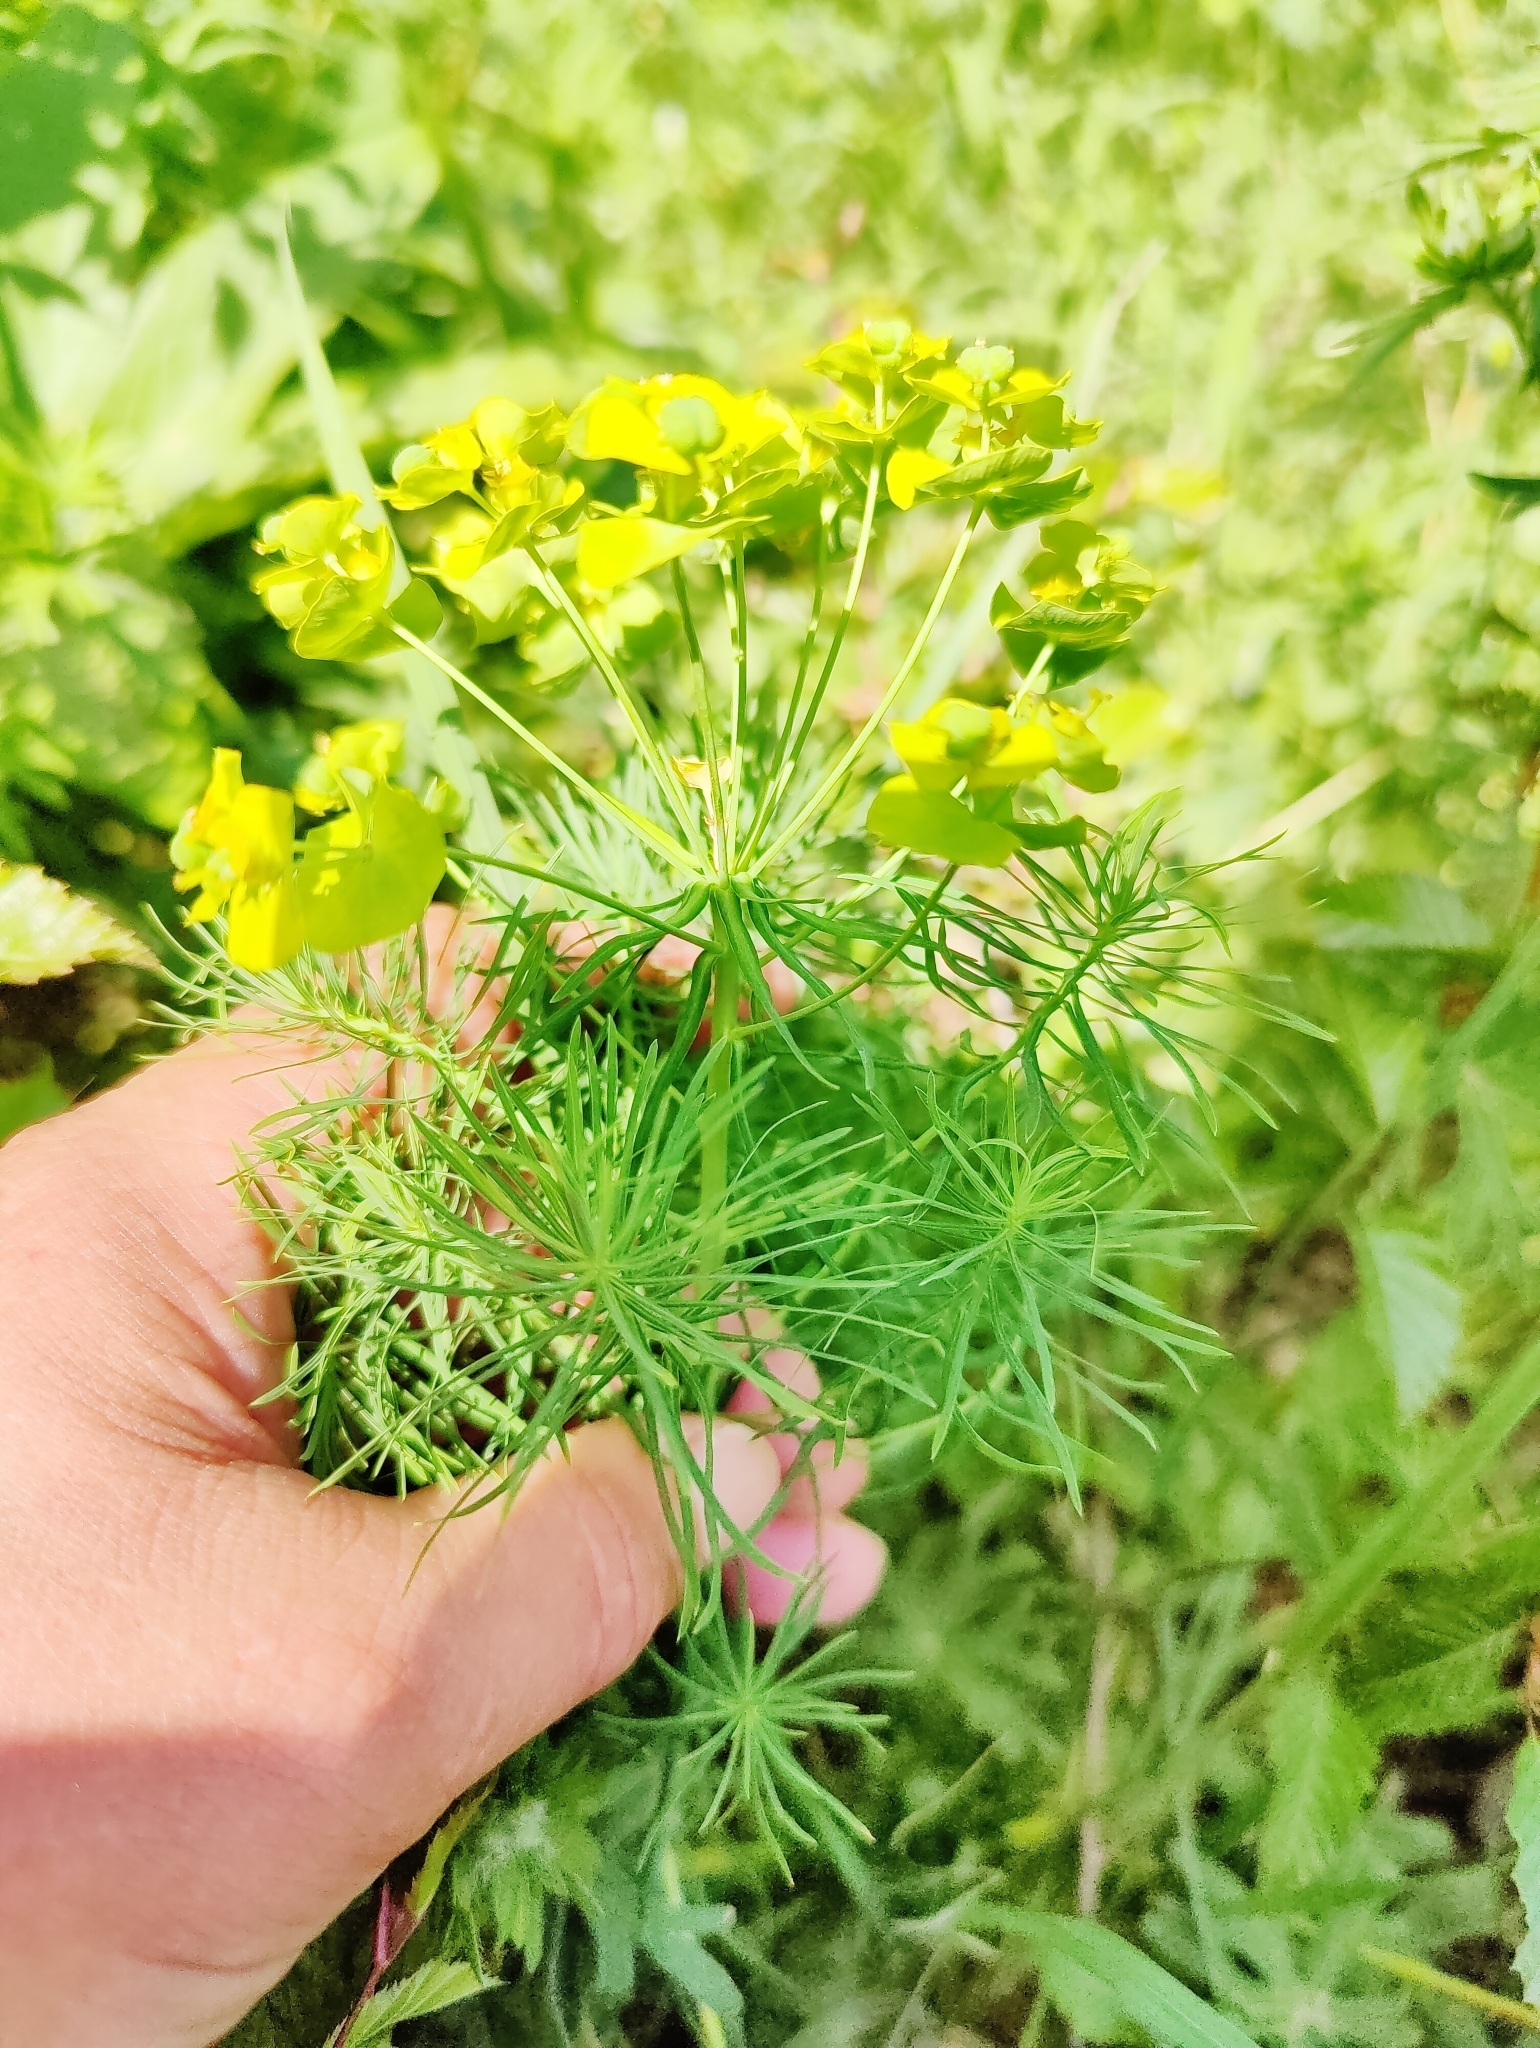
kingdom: Plantae
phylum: Tracheophyta
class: Magnoliopsida
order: Malpighiales
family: Euphorbiaceae
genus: Euphorbia
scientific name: Euphorbia cyparissias
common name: Cypress spurge
